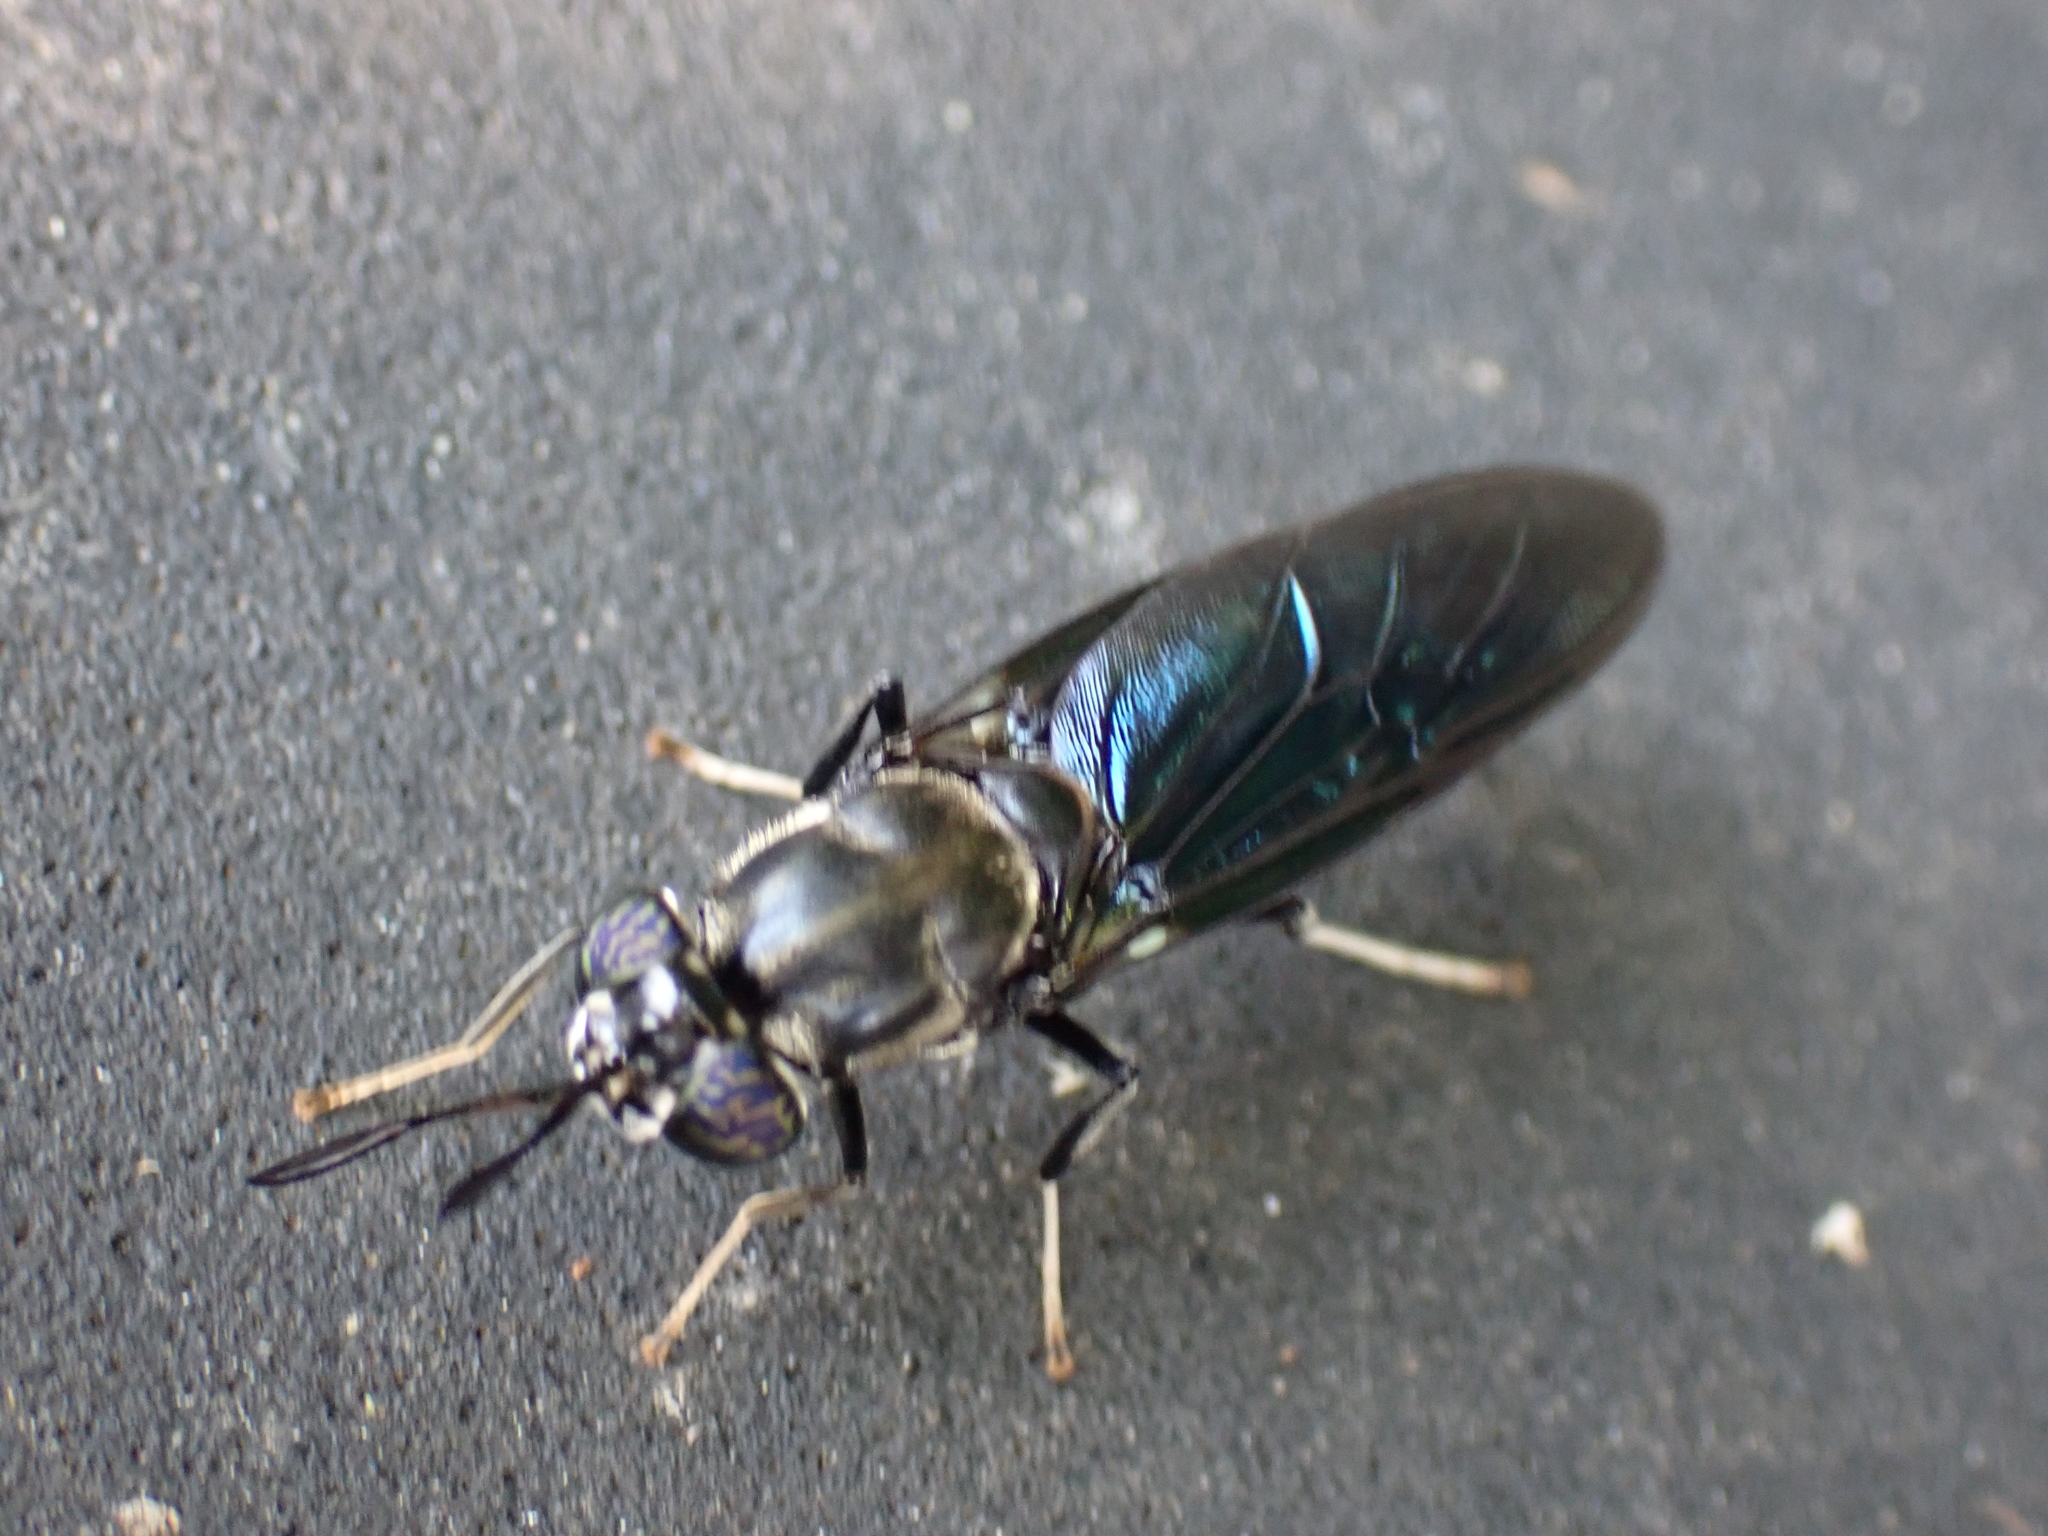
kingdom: Animalia
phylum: Arthropoda
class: Insecta
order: Diptera
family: Stratiomyidae
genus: Hermetia
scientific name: Hermetia illucens
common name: Black soldier fly
